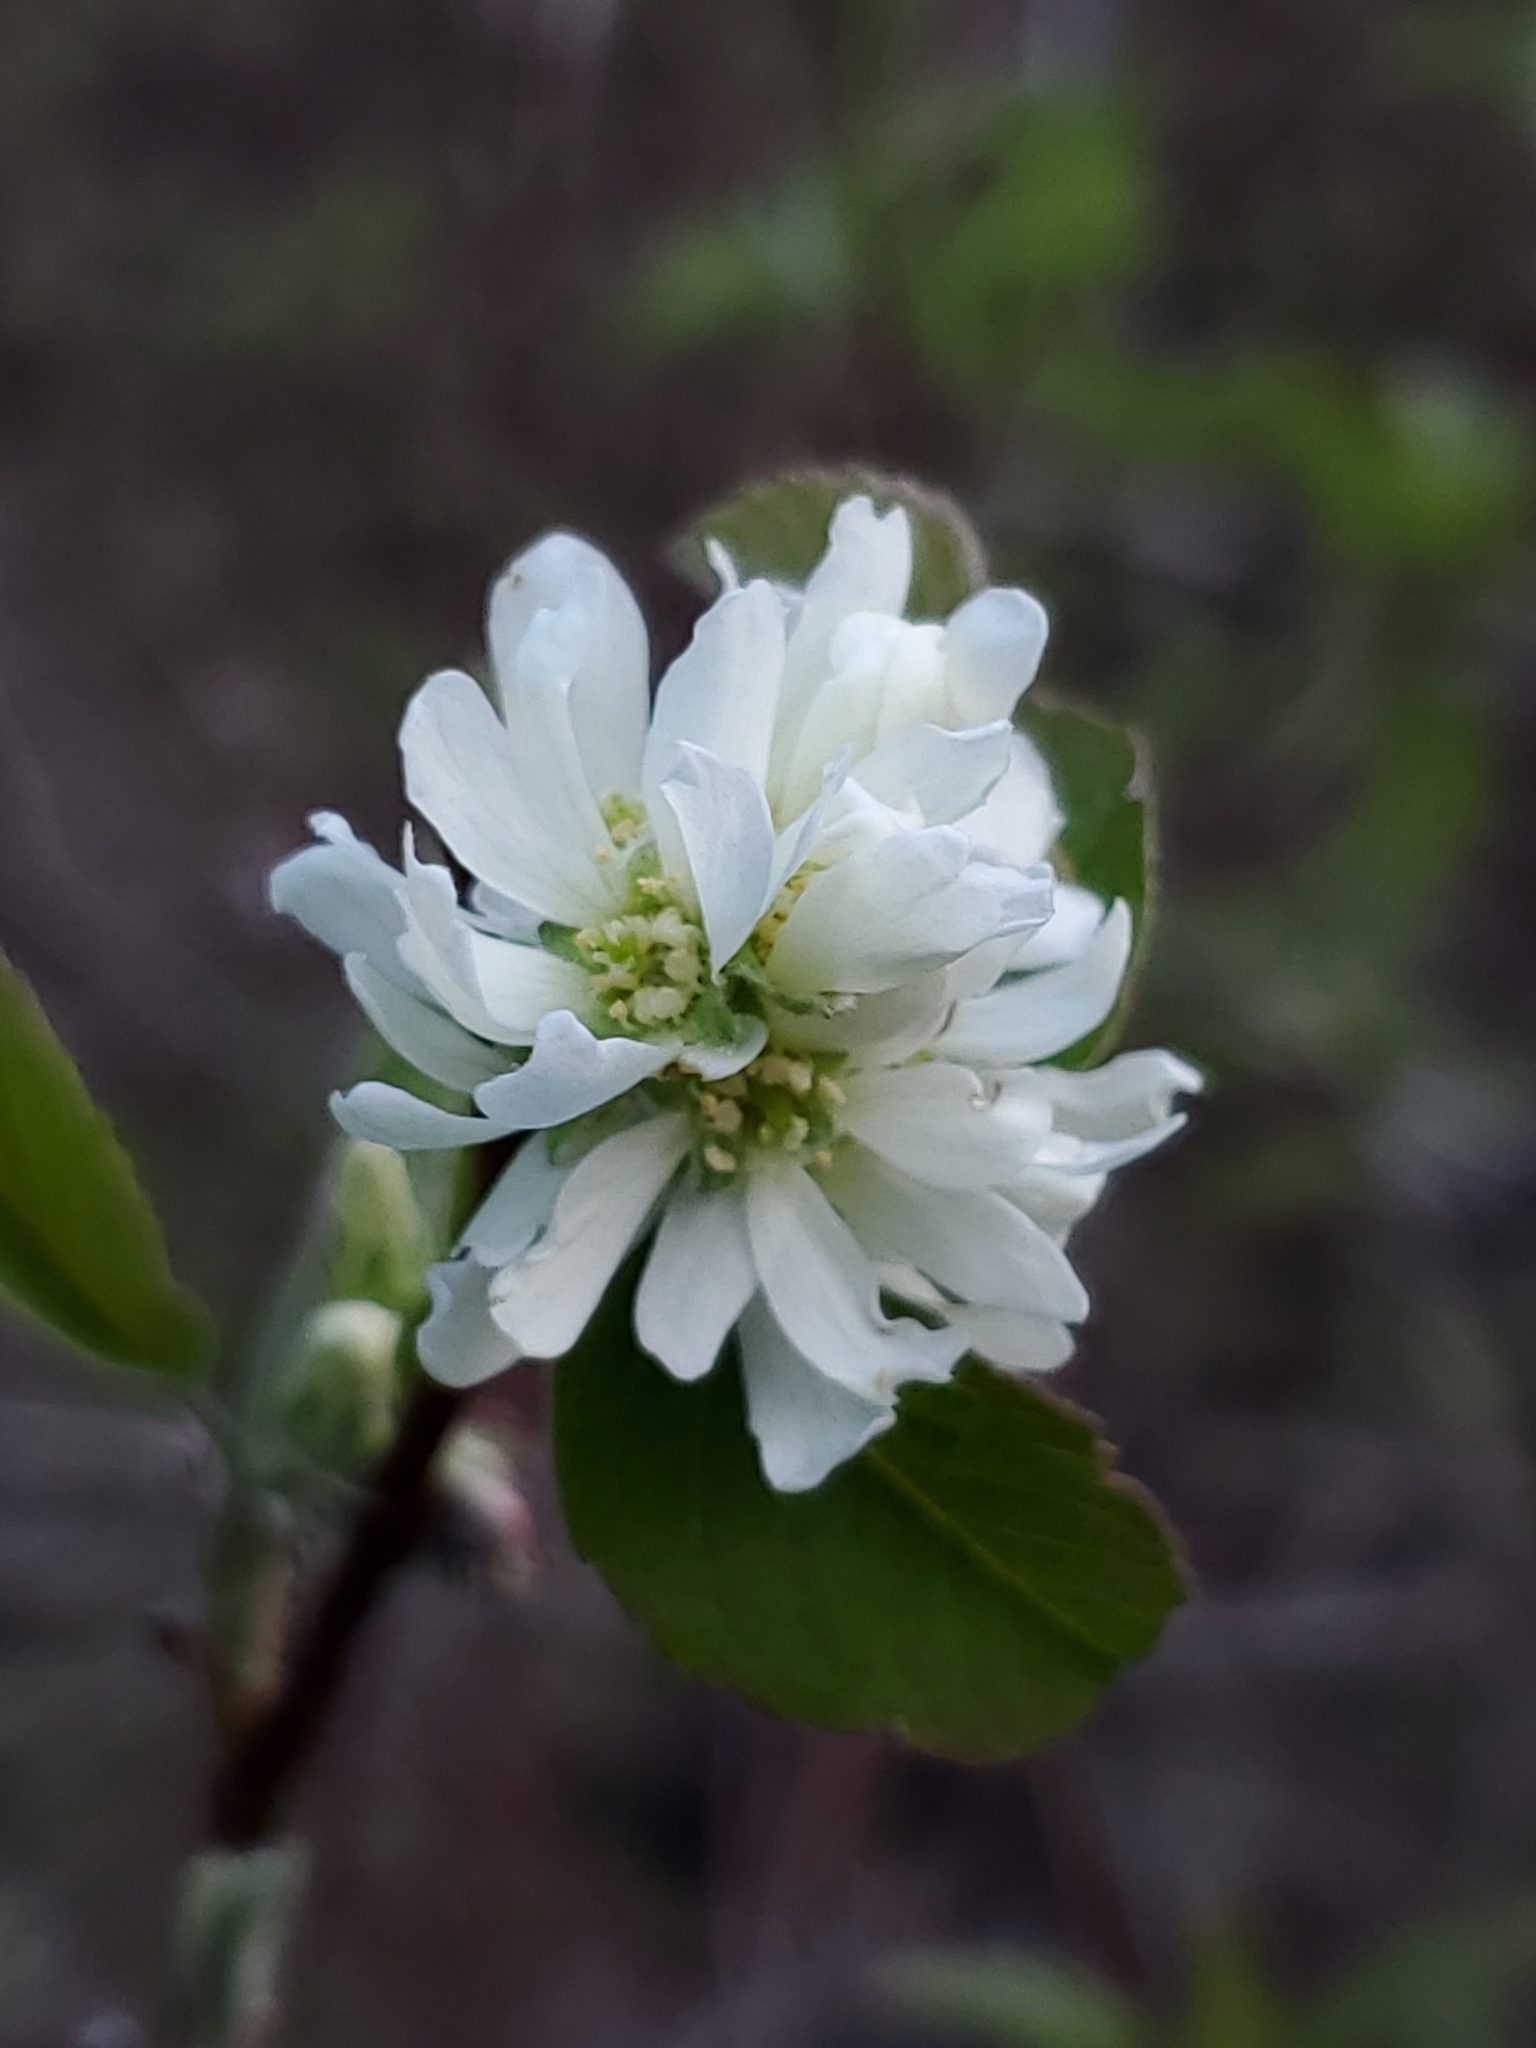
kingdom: Plantae
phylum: Tracheophyta
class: Magnoliopsida
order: Rosales
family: Rosaceae
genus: Amelanchier
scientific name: Amelanchier alnifolia
